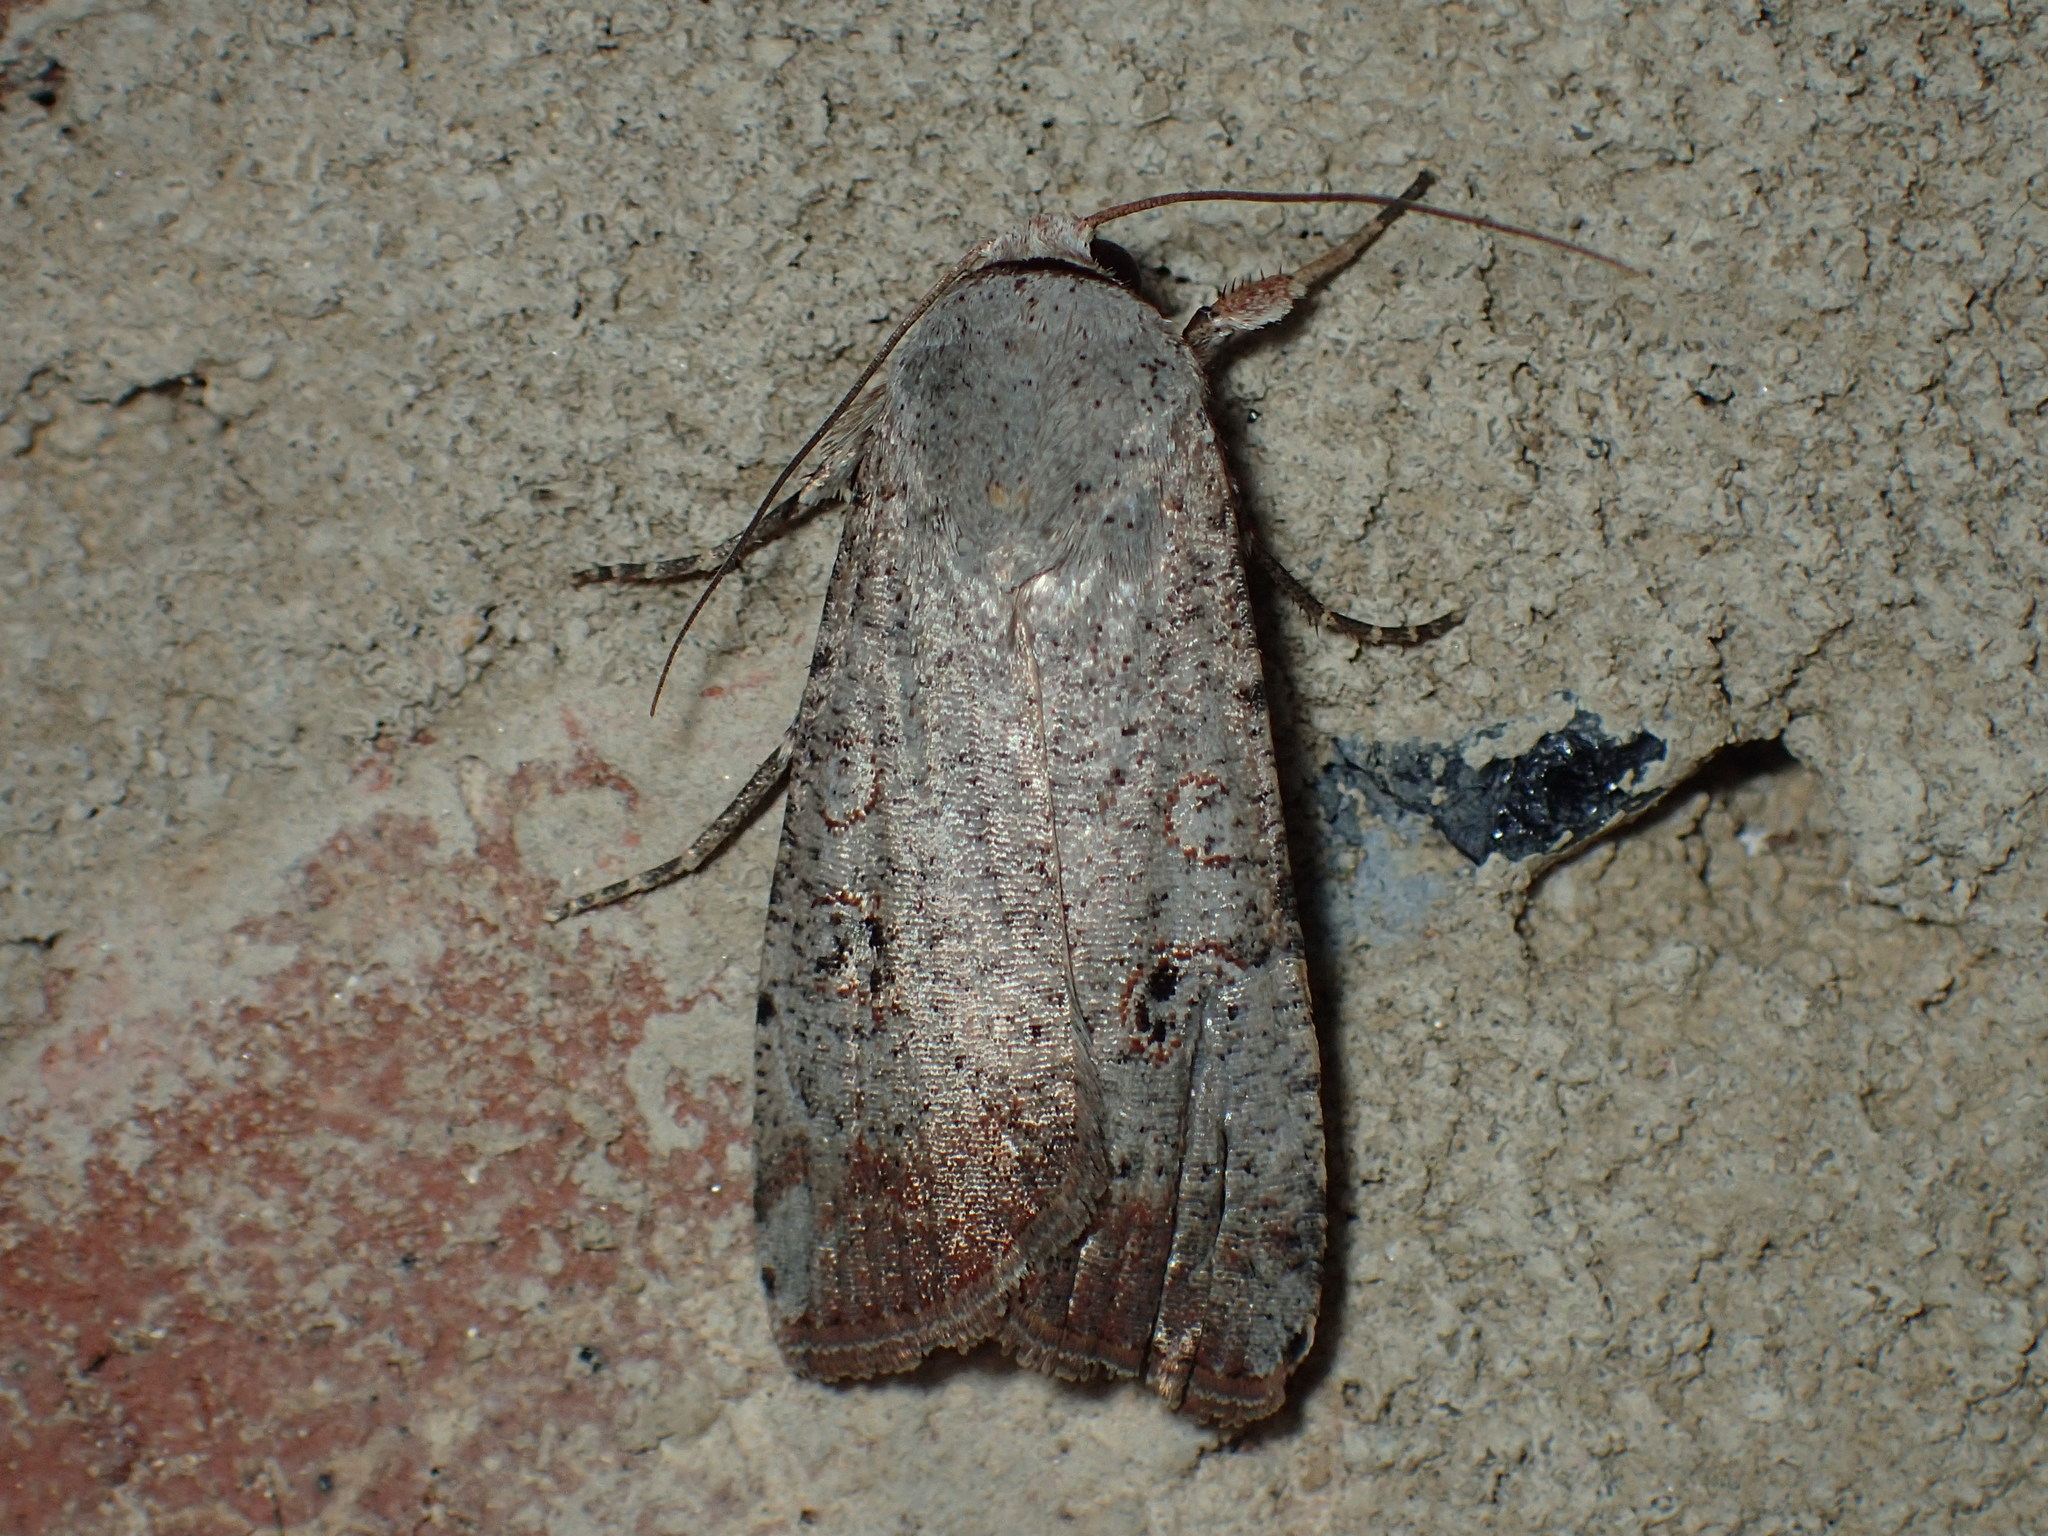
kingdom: Animalia
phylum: Arthropoda
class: Insecta
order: Lepidoptera
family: Noctuidae
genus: Anicla
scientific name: Anicla infecta
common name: Green cutworm
